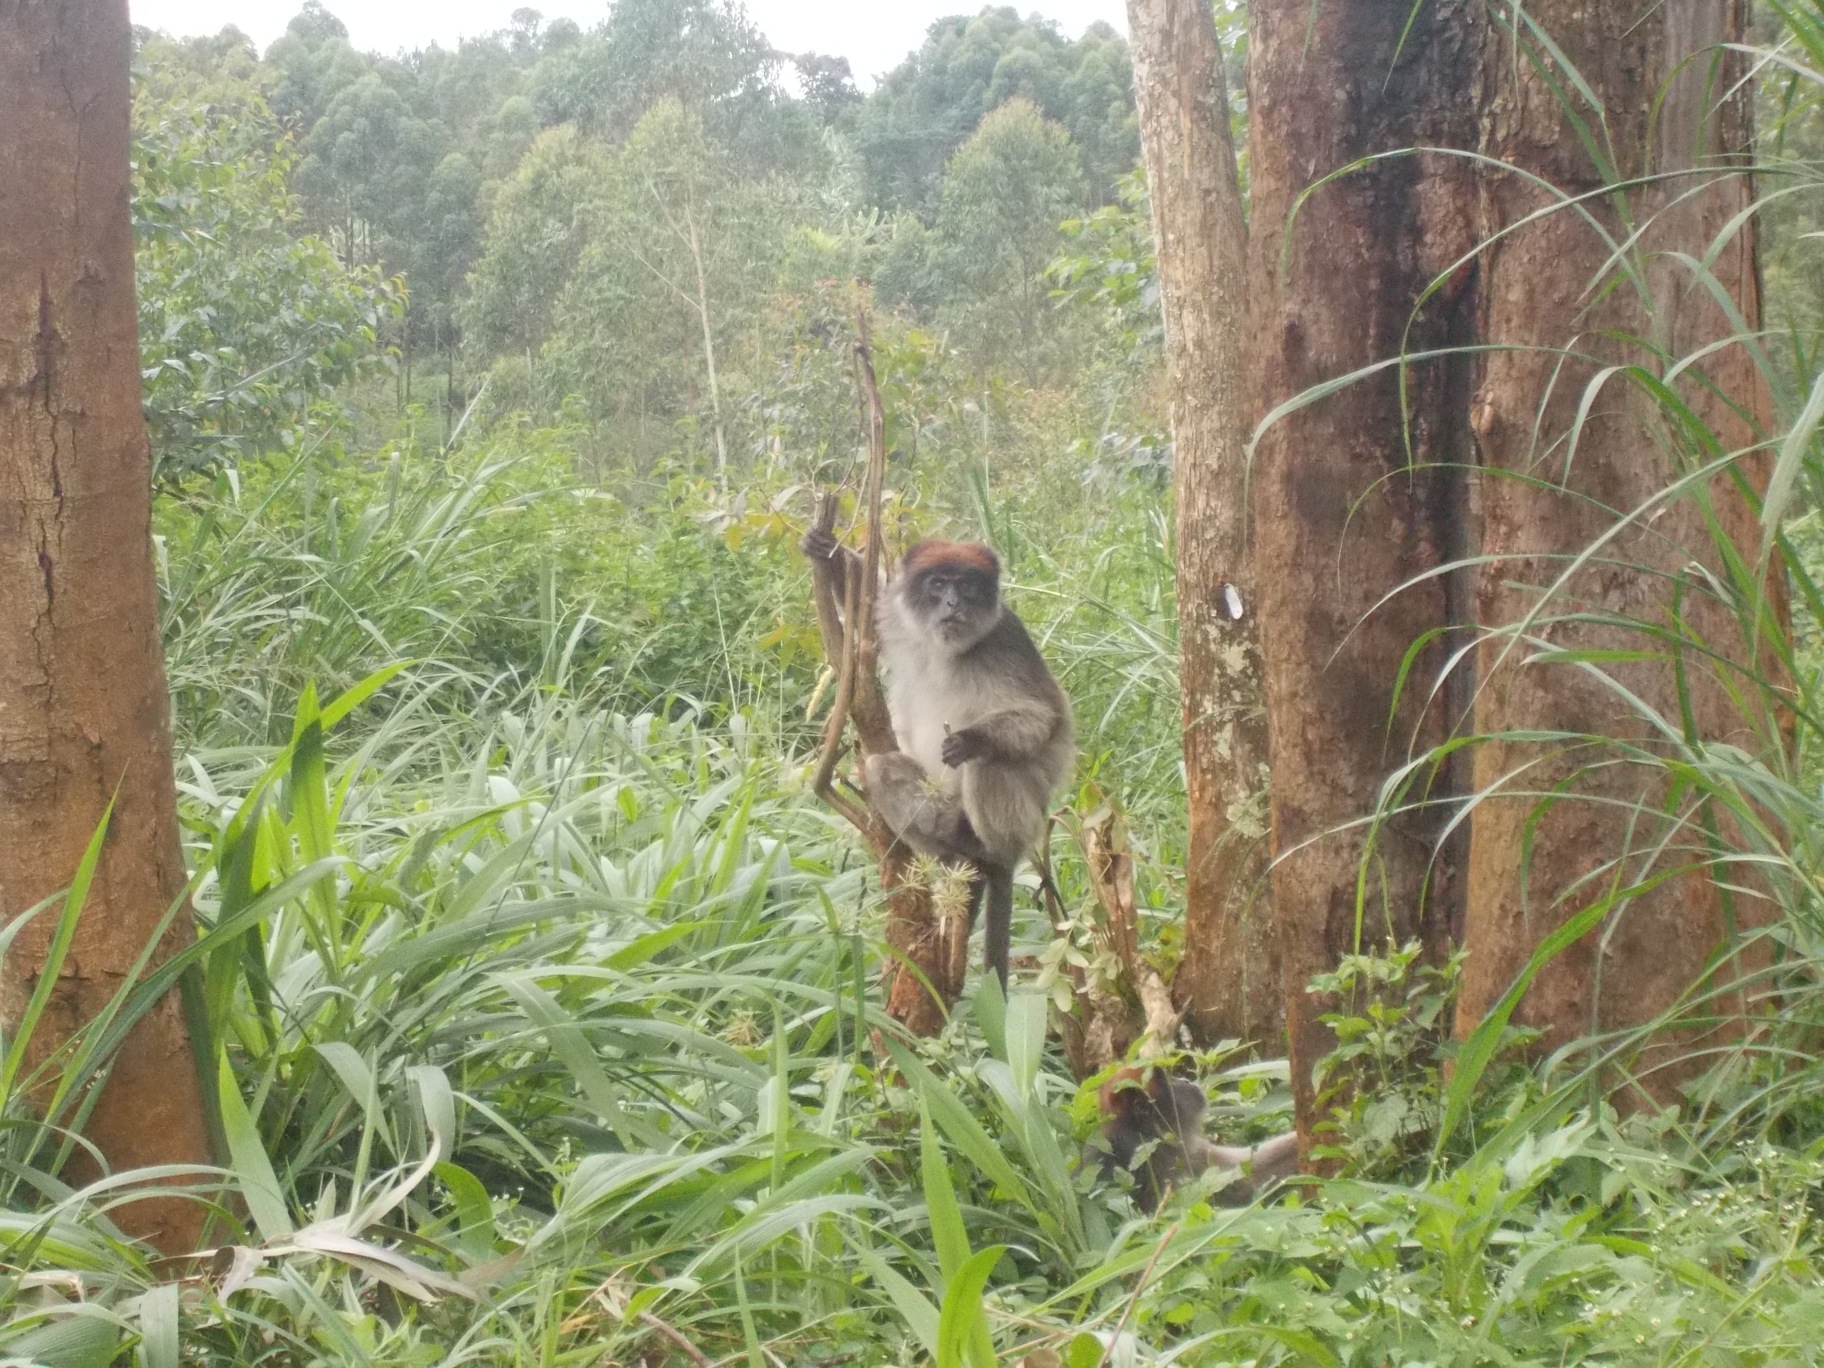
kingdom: Animalia
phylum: Chordata
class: Mammalia
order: Primates
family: Cercopithecidae
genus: Piliocolobus
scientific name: Piliocolobus tephrosceles
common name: Ugandan red colobus
